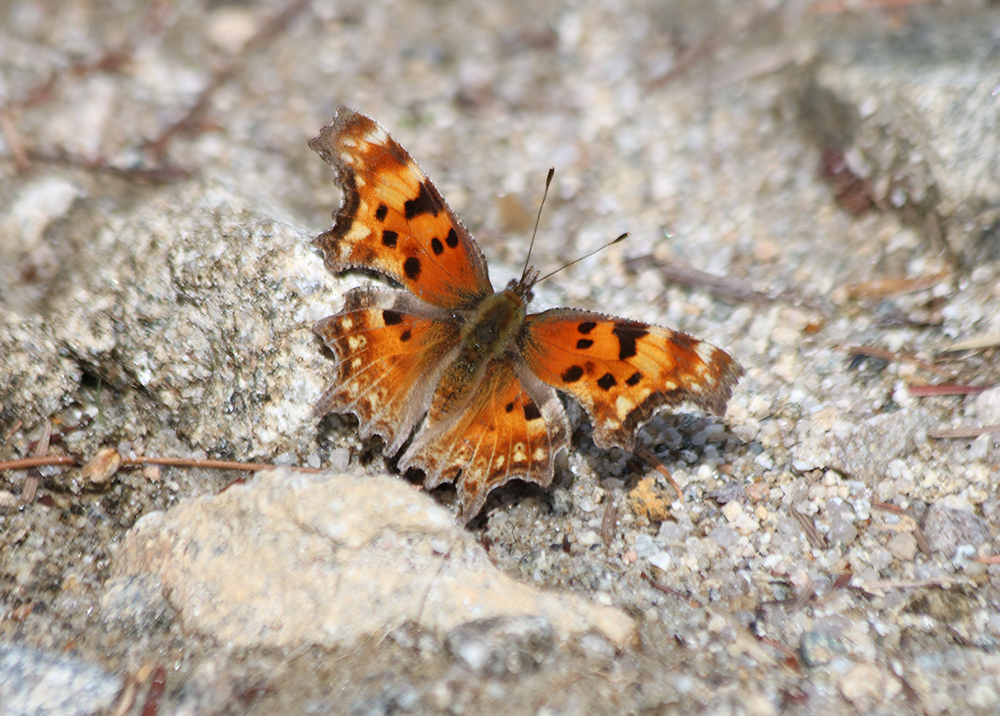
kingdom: Animalia
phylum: Arthropoda
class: Insecta
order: Lepidoptera
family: Nymphalidae
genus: Polygonia
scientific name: Polygonia gracilis
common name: Hoary comma
